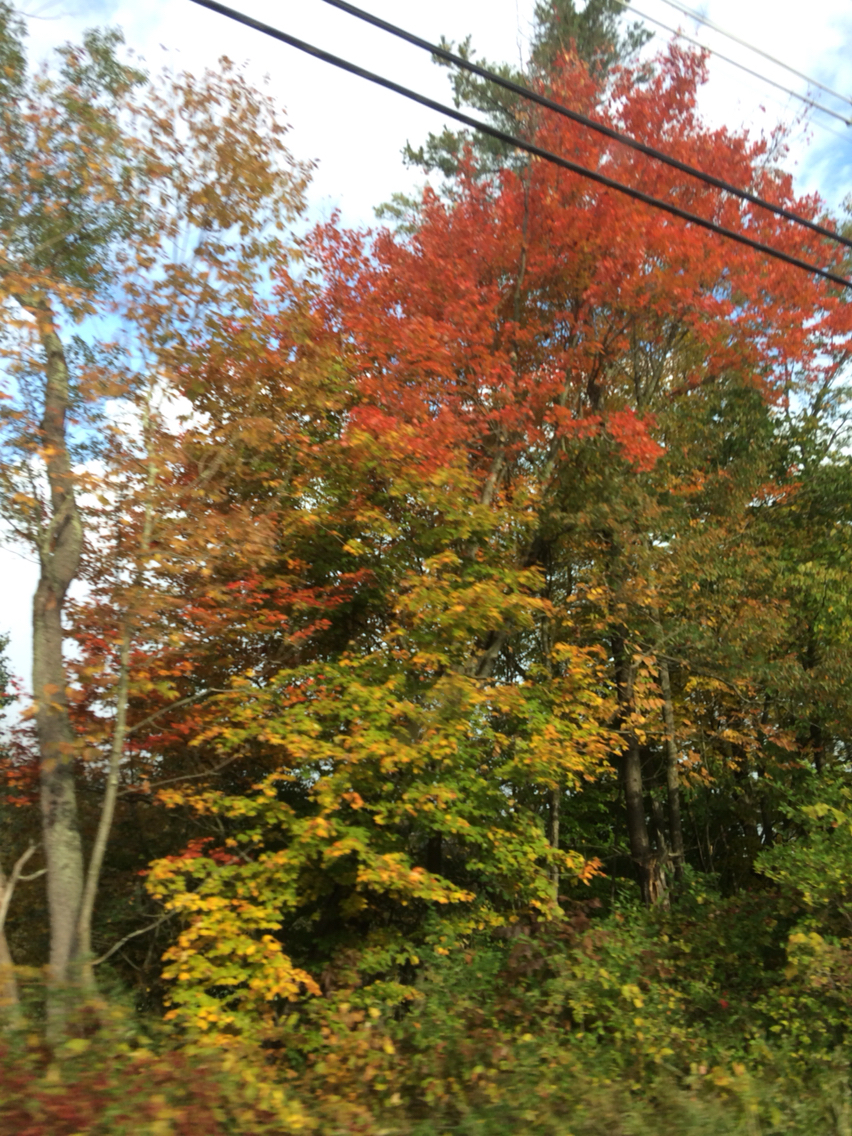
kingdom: Plantae
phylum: Tracheophyta
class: Magnoliopsida
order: Sapindales
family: Sapindaceae
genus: Acer
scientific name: Acer rubrum
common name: Red maple
